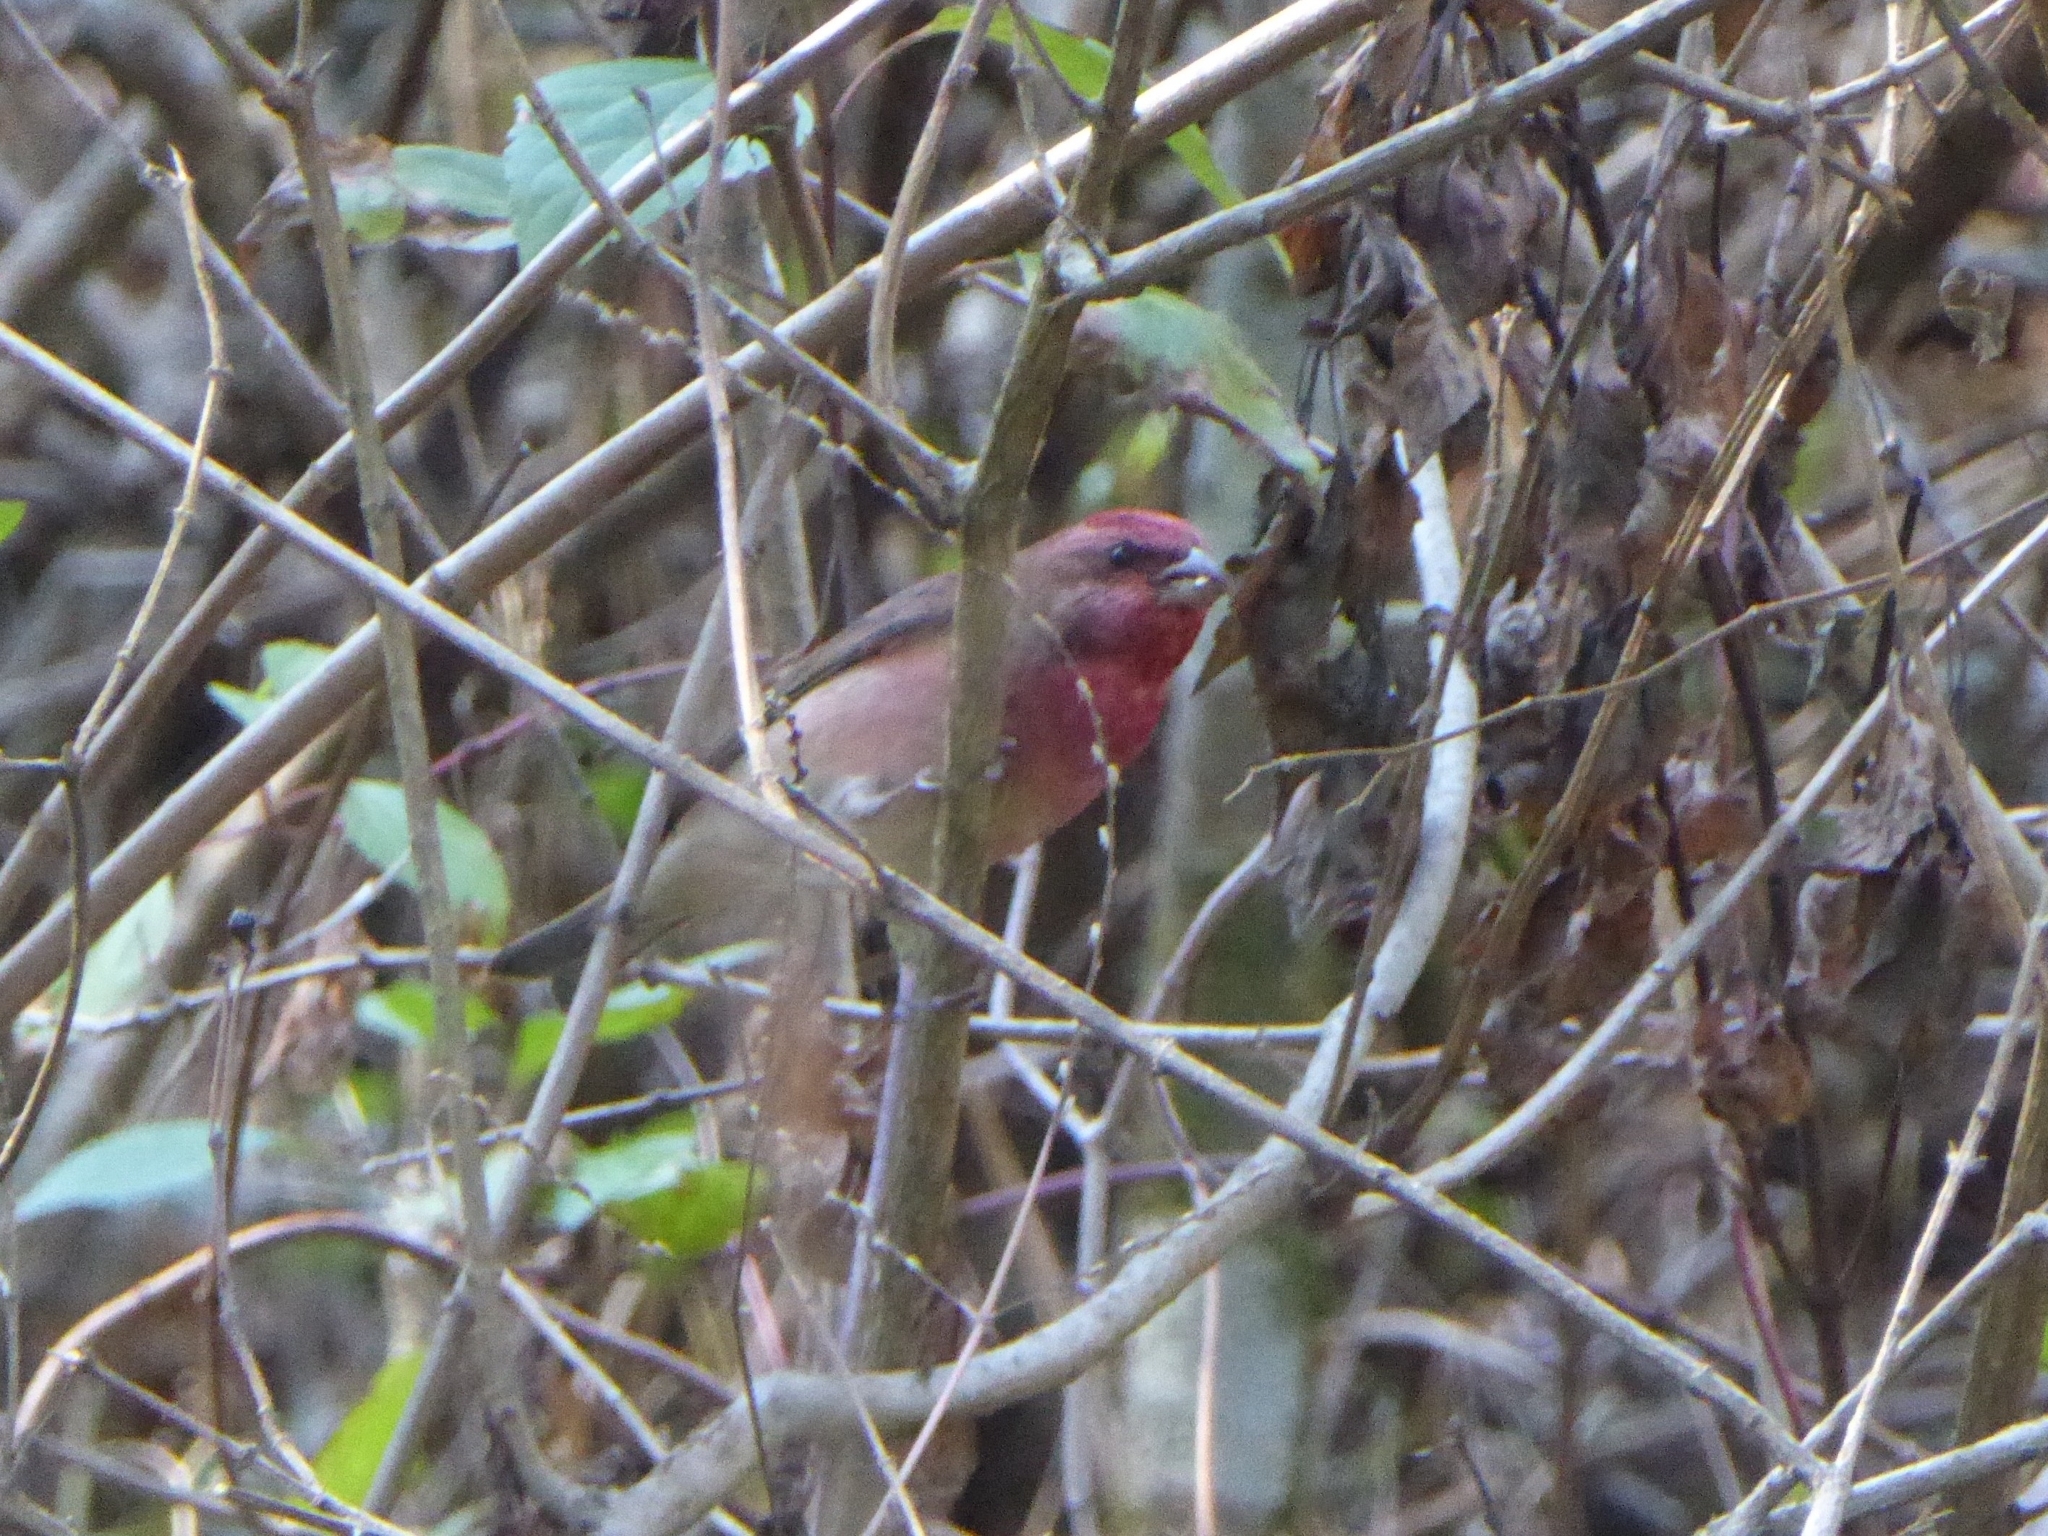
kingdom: Animalia
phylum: Chordata
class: Aves
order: Passeriformes
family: Fringillidae
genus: Carpodacus
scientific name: Carpodacus erythrinus
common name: Common rosefinch
